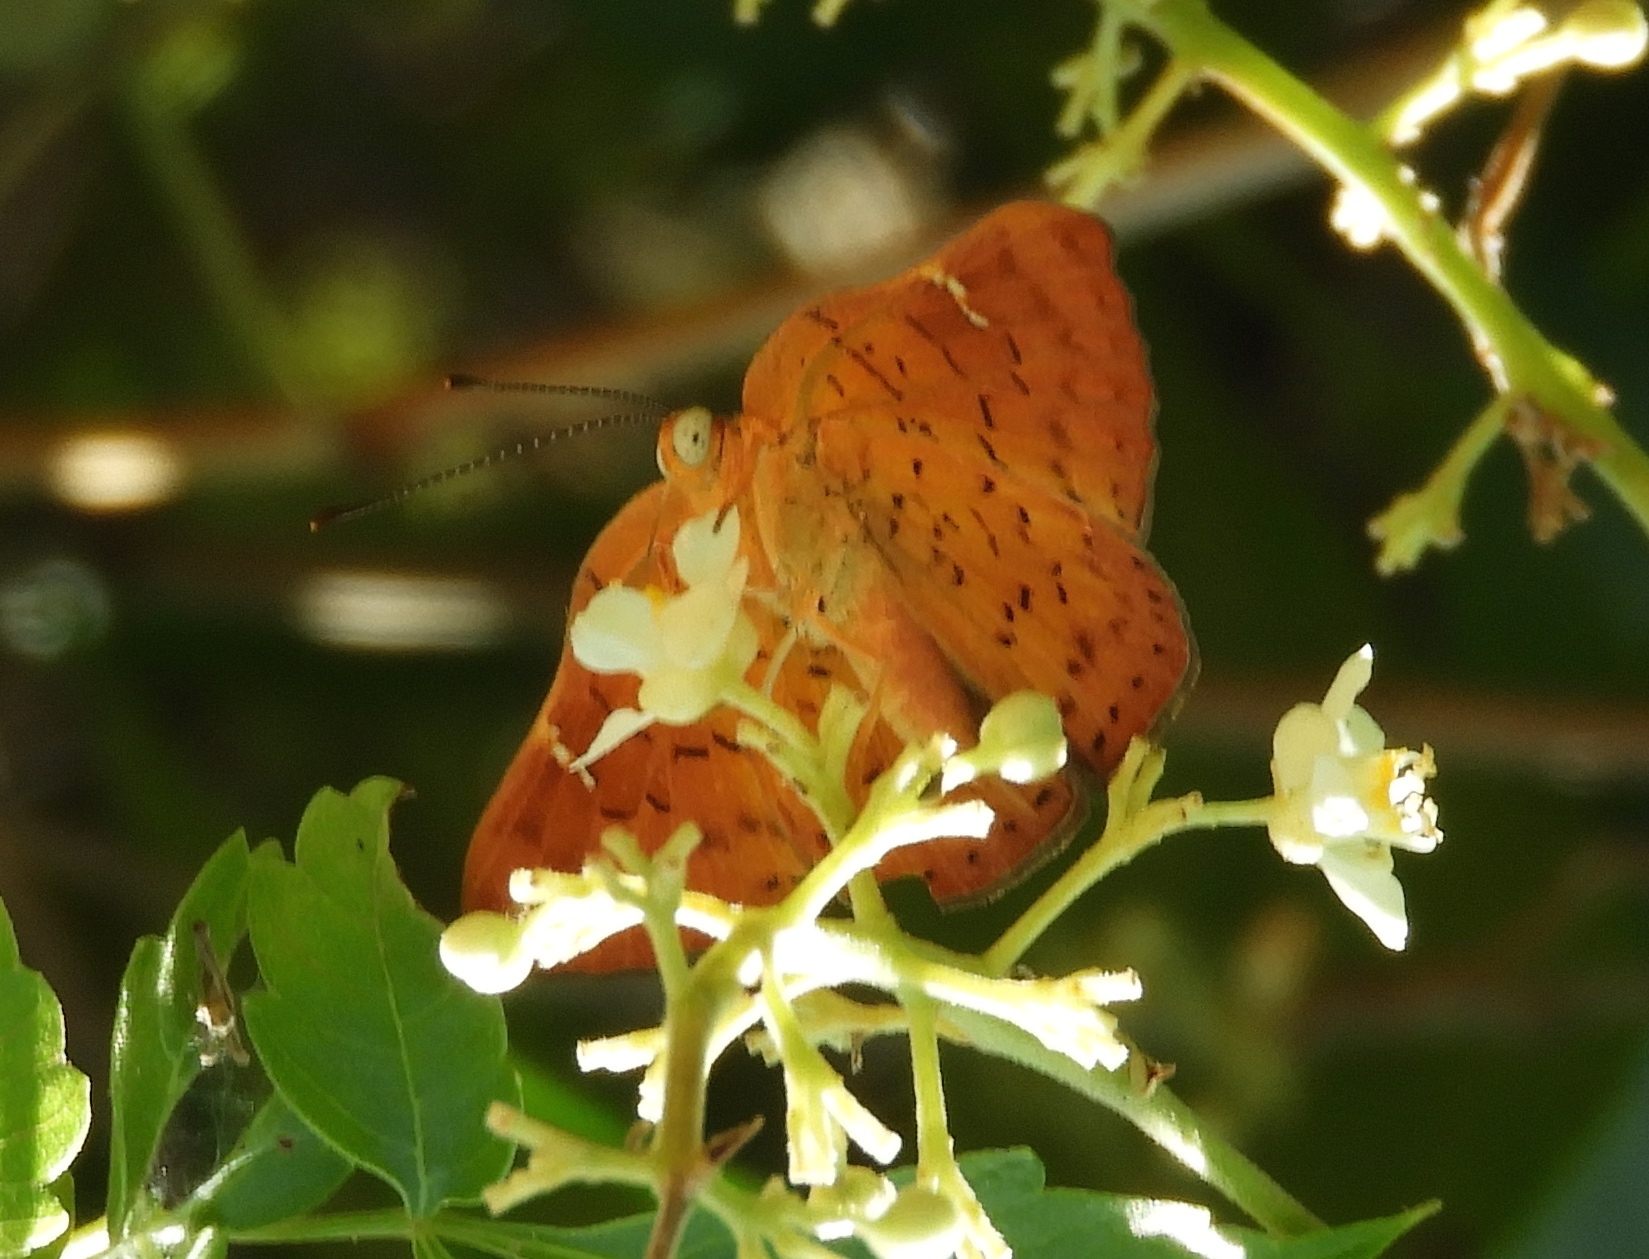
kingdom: Animalia
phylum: Arthropoda
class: Insecta
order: Lepidoptera
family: Riodinidae
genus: Curvie
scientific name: Curvie emesia
